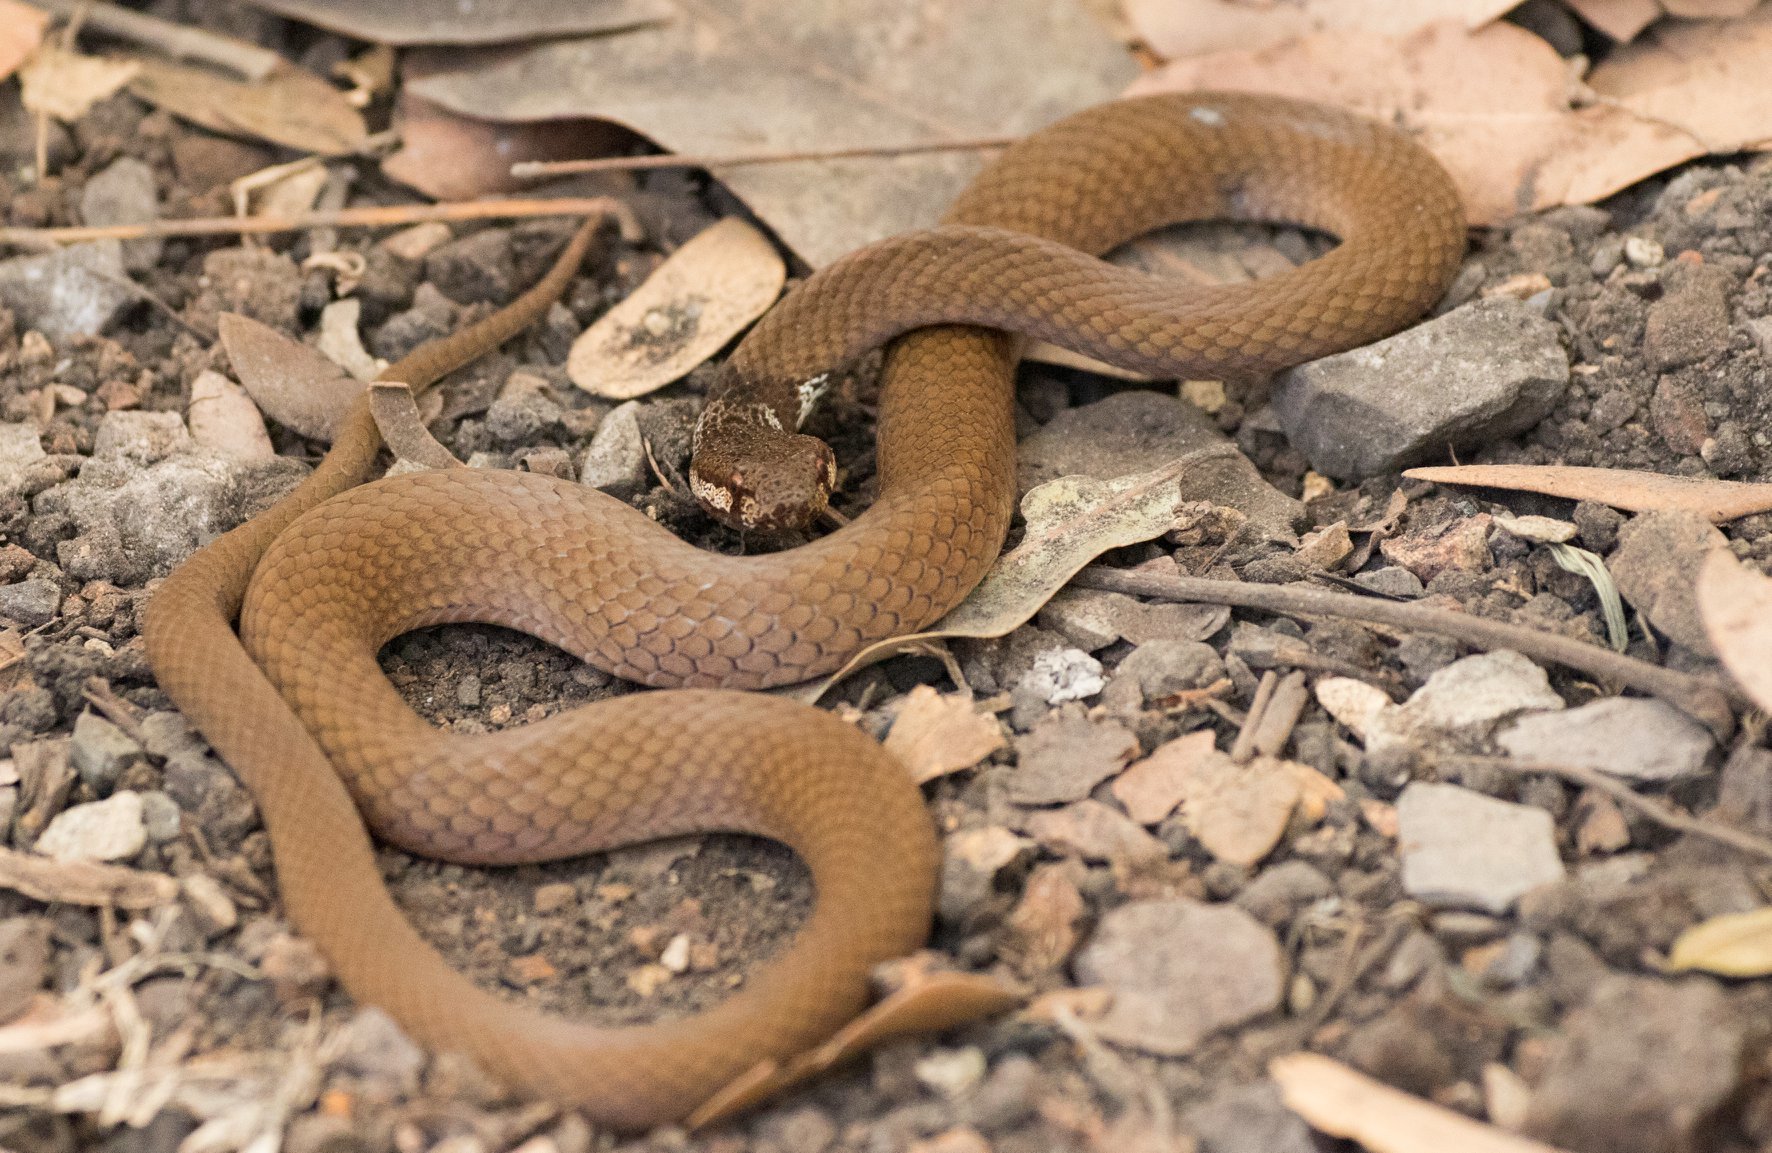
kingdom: Animalia
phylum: Chordata
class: Squamata
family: Elapidae
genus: Aspidomorphus
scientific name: Aspidomorphus muelleri
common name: Müller’s crown snake
